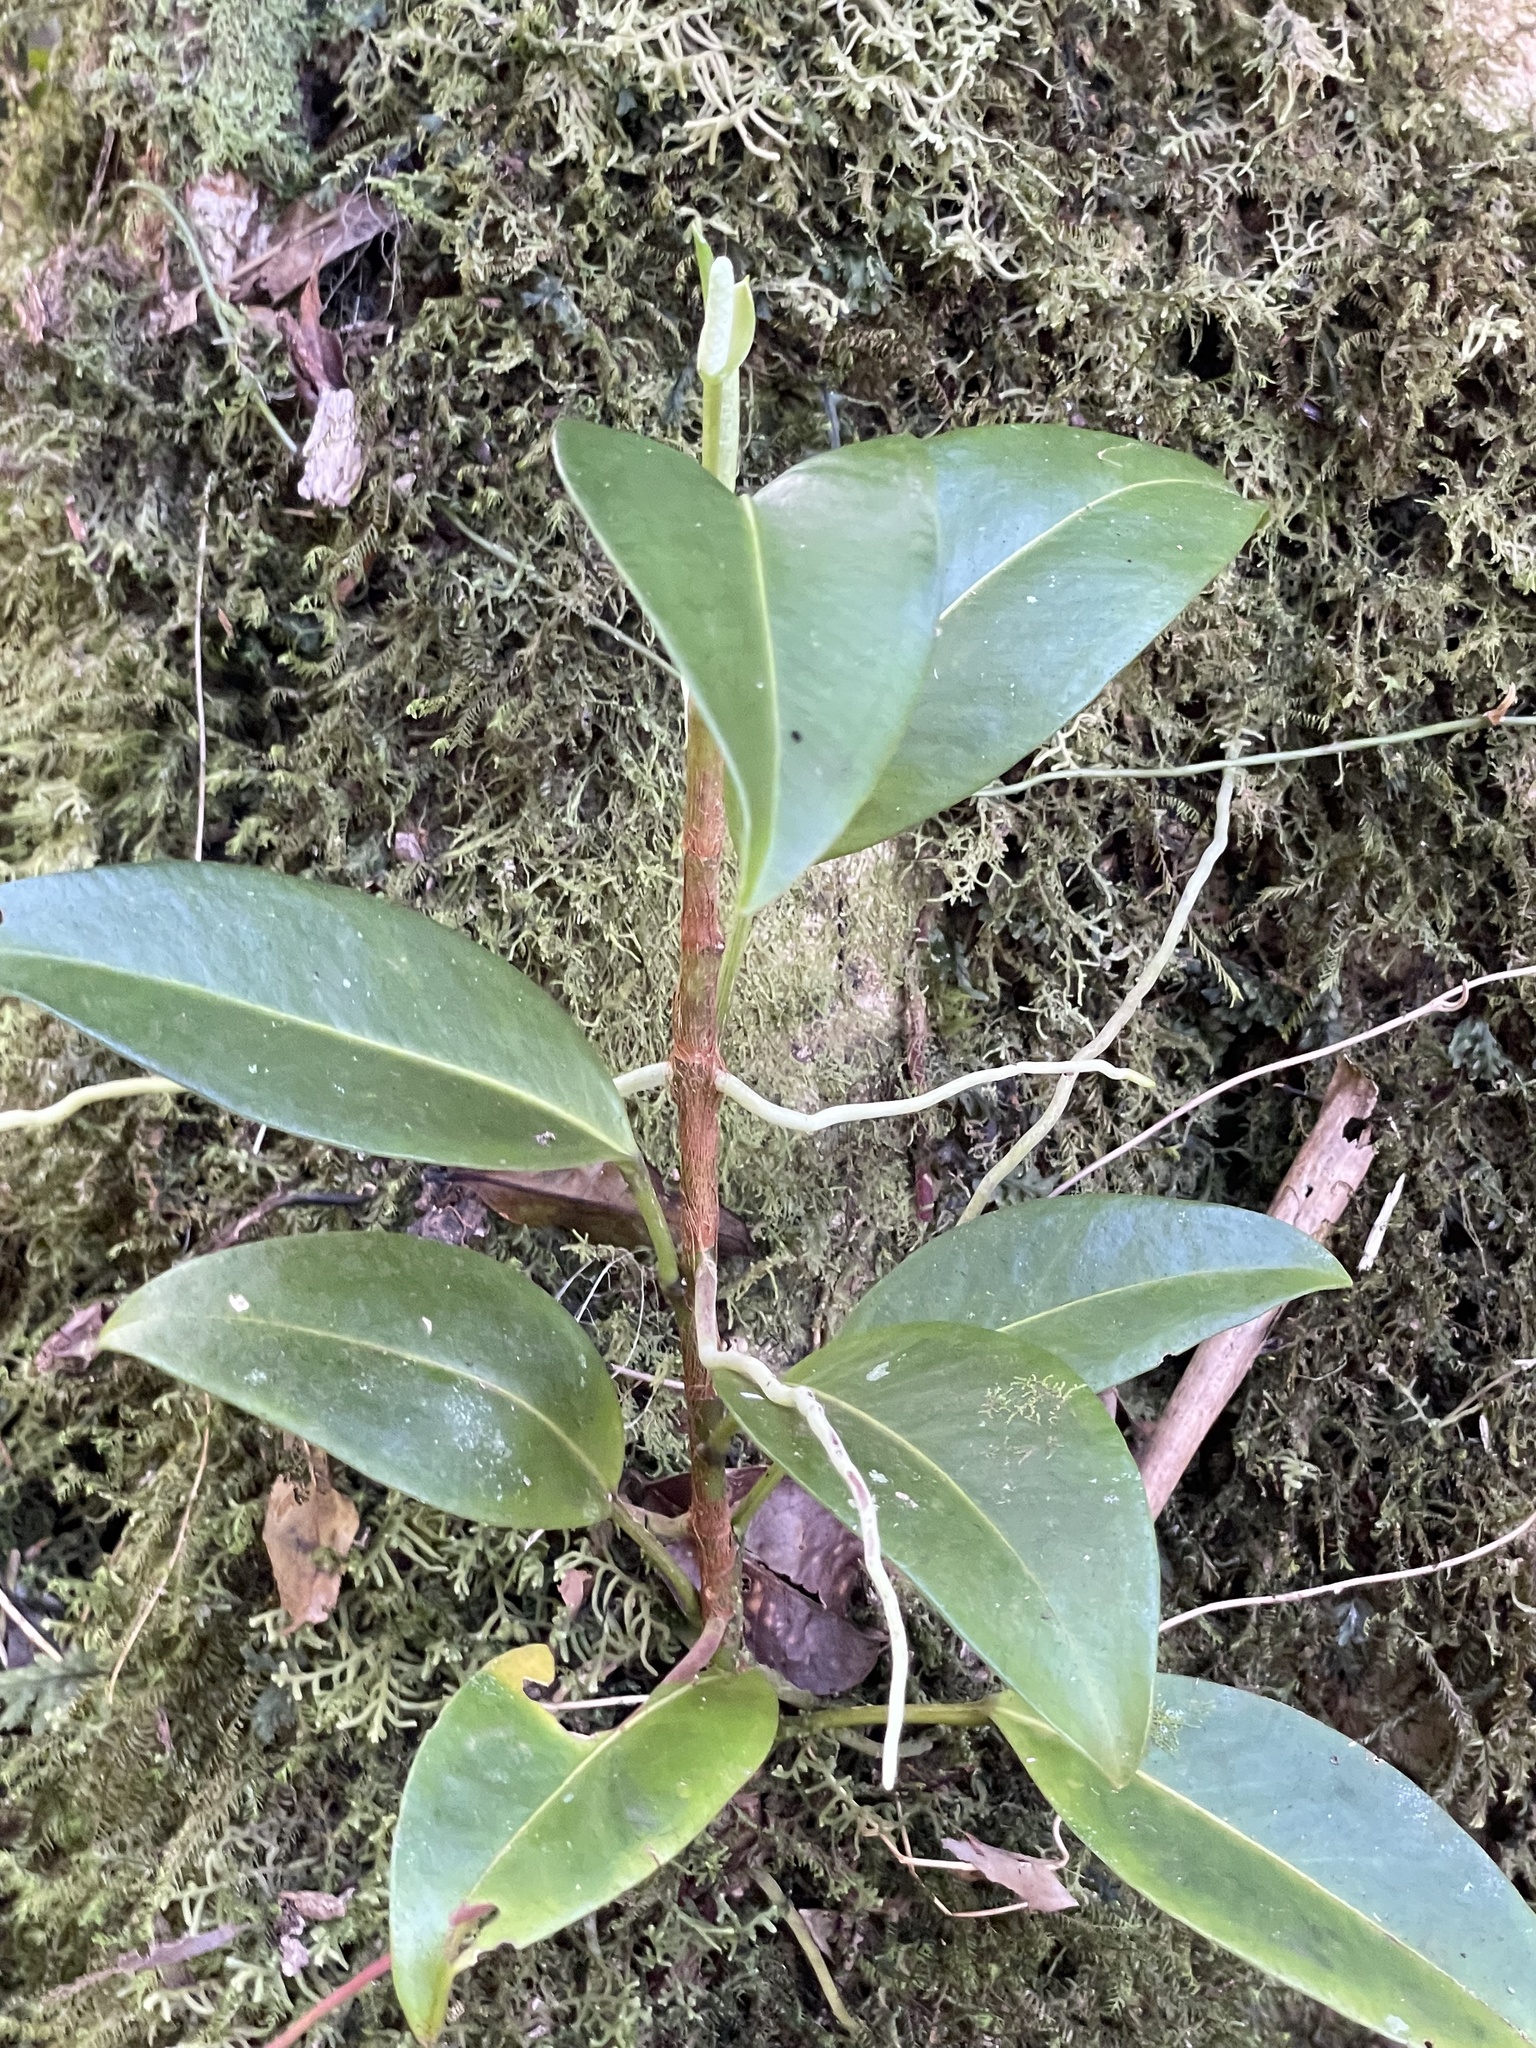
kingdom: Plantae
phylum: Tracheophyta
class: Liliopsida
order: Alismatales
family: Araceae
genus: Anthurium
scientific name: Anthurium scandens
